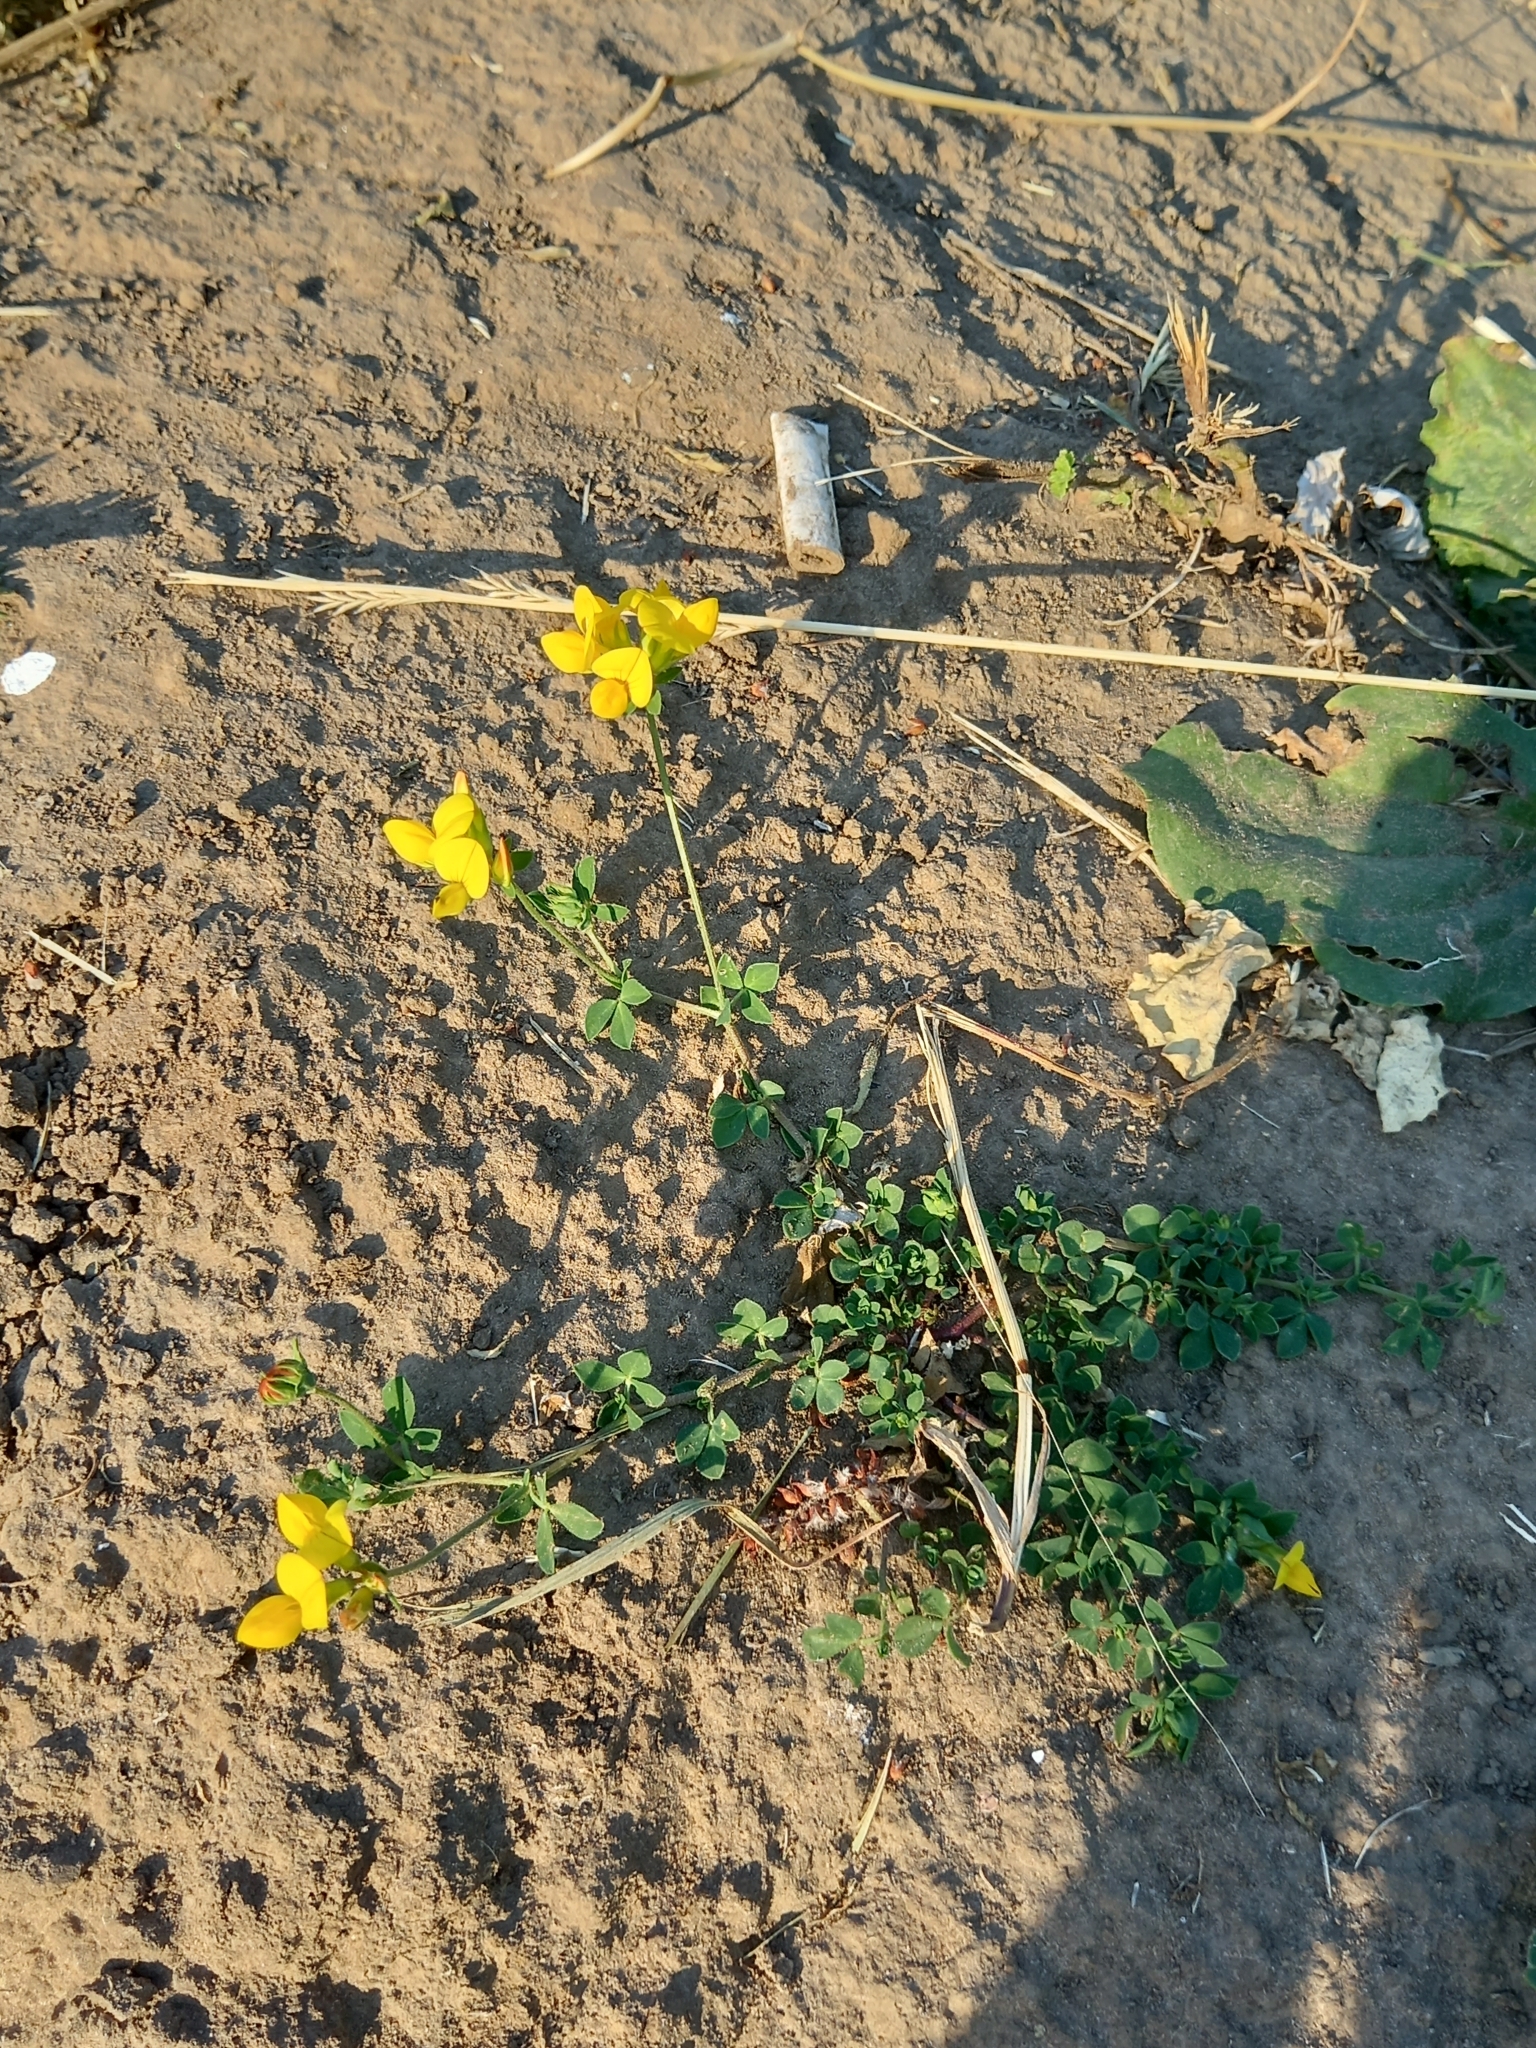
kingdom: Plantae
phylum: Tracheophyta
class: Magnoliopsida
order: Fabales
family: Fabaceae
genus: Lotus
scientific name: Lotus corniculatus
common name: Common bird's-foot-trefoil
